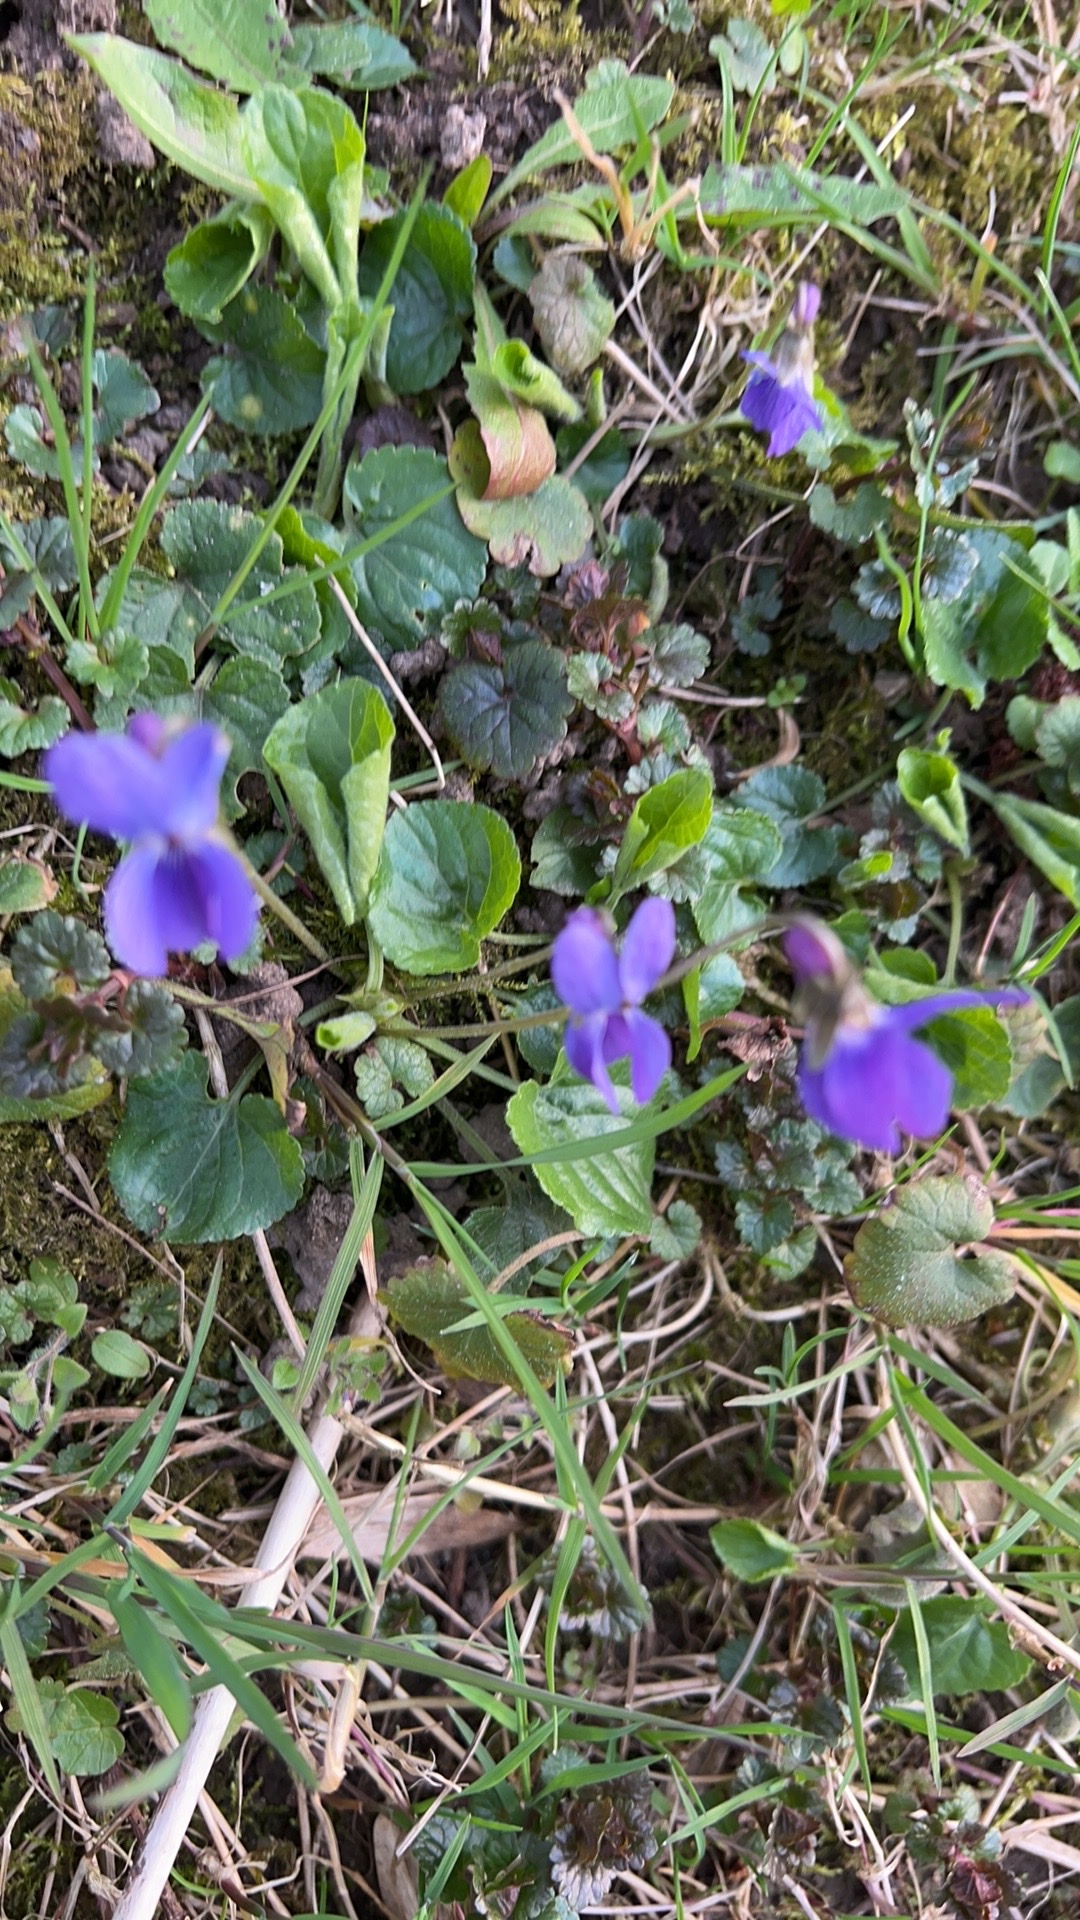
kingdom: Plantae
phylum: Tracheophyta
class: Magnoliopsida
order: Malpighiales
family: Violaceae
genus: Viola
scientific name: Viola odorata
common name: Sweet violet
